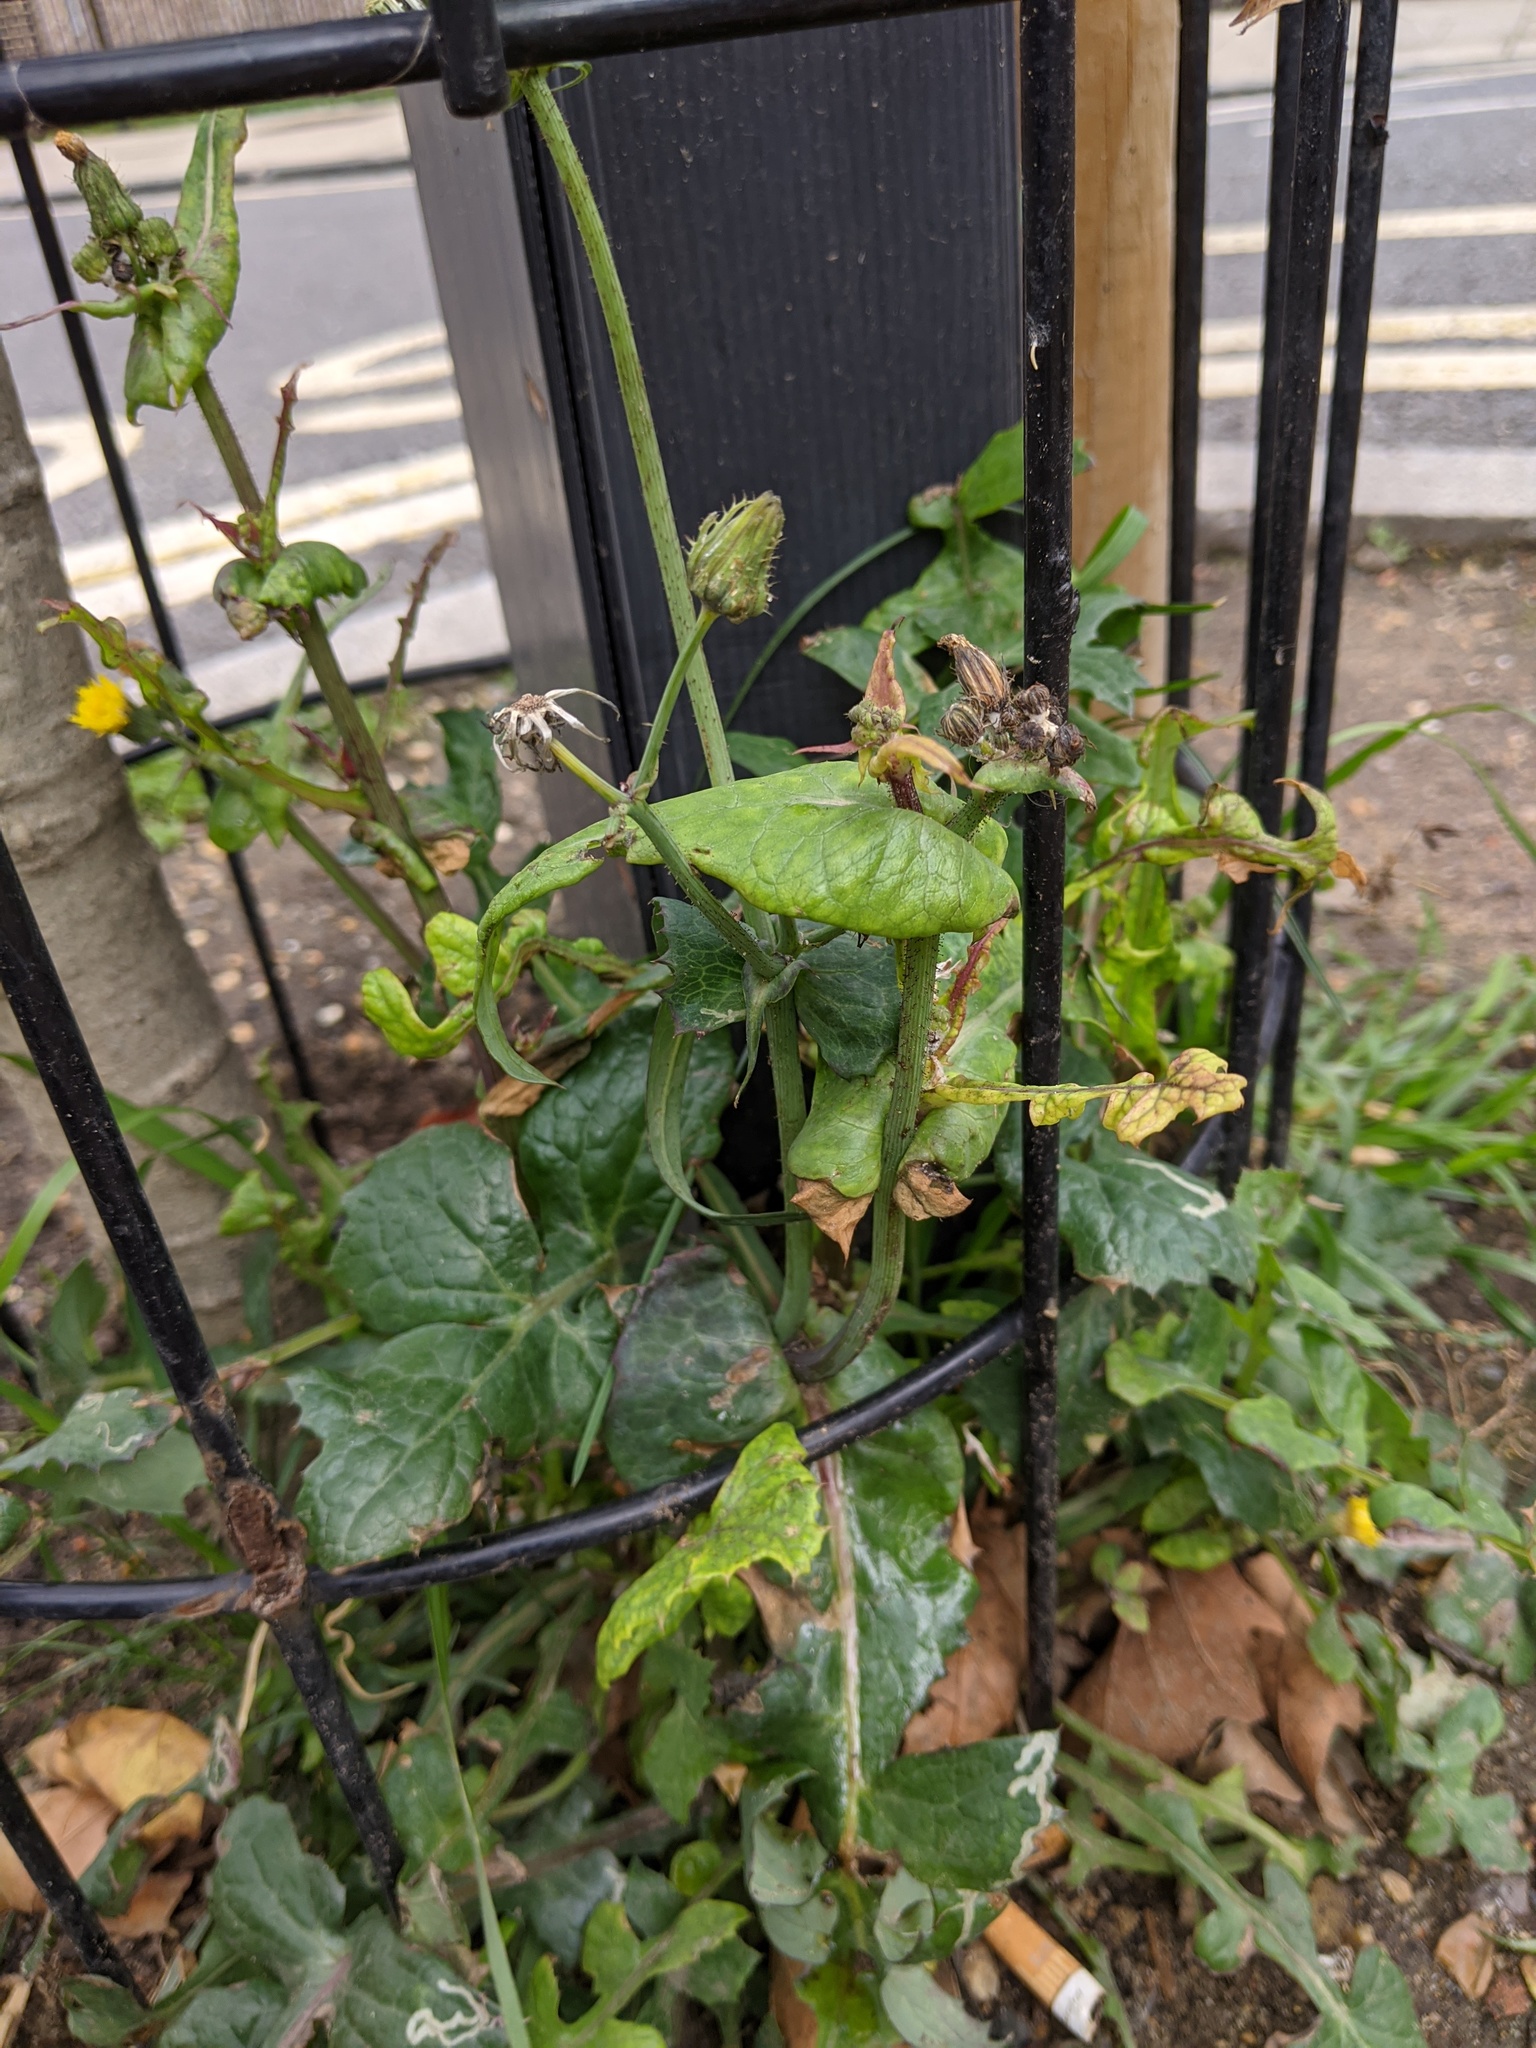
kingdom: Plantae
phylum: Tracheophyta
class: Magnoliopsida
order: Asterales
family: Asteraceae
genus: Sonchus
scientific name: Sonchus oleraceus
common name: Common sowthistle
